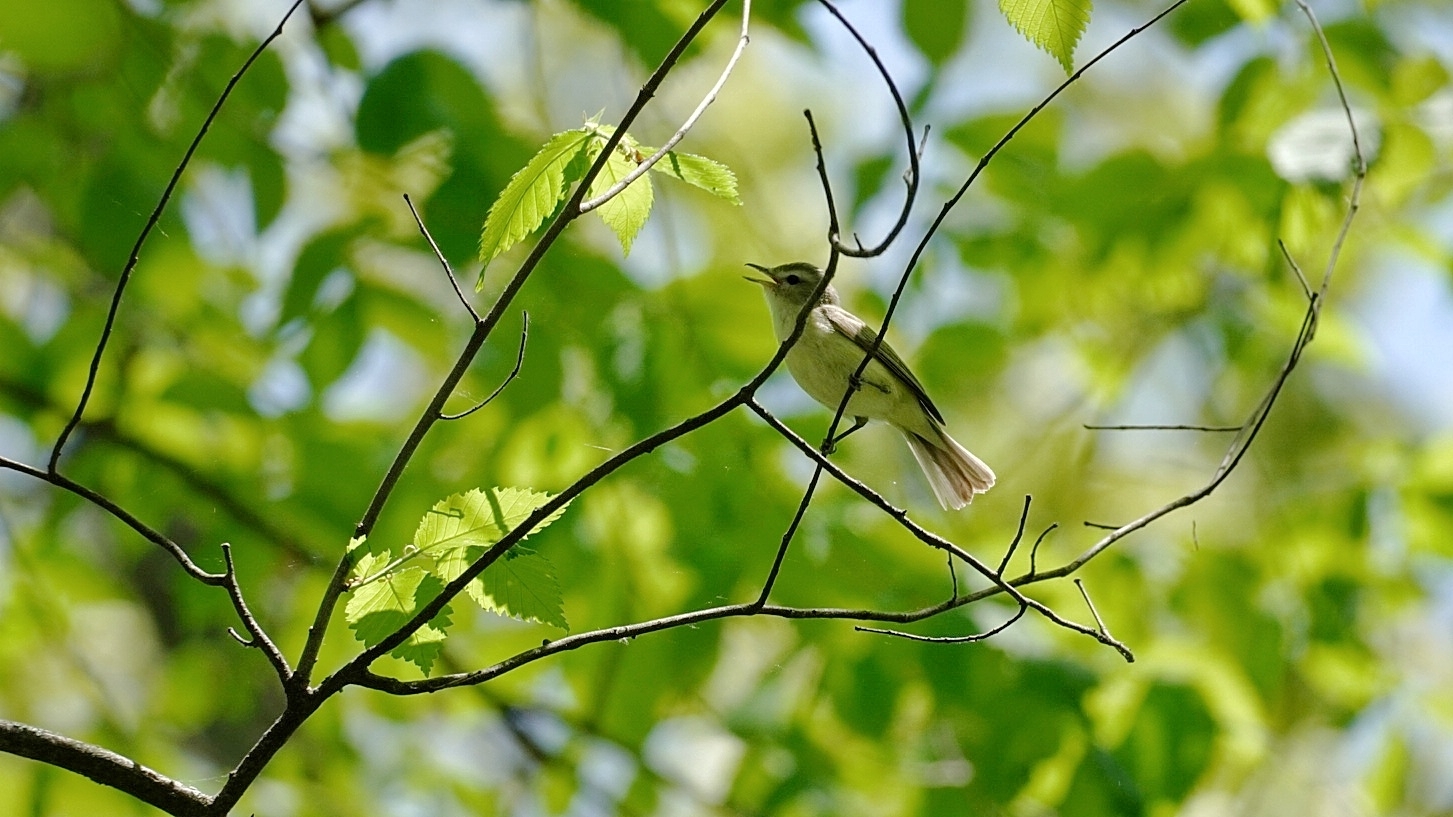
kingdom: Animalia
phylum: Chordata
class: Aves
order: Passeriformes
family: Vireonidae
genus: Vireo
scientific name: Vireo gilvus
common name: Warbling vireo
